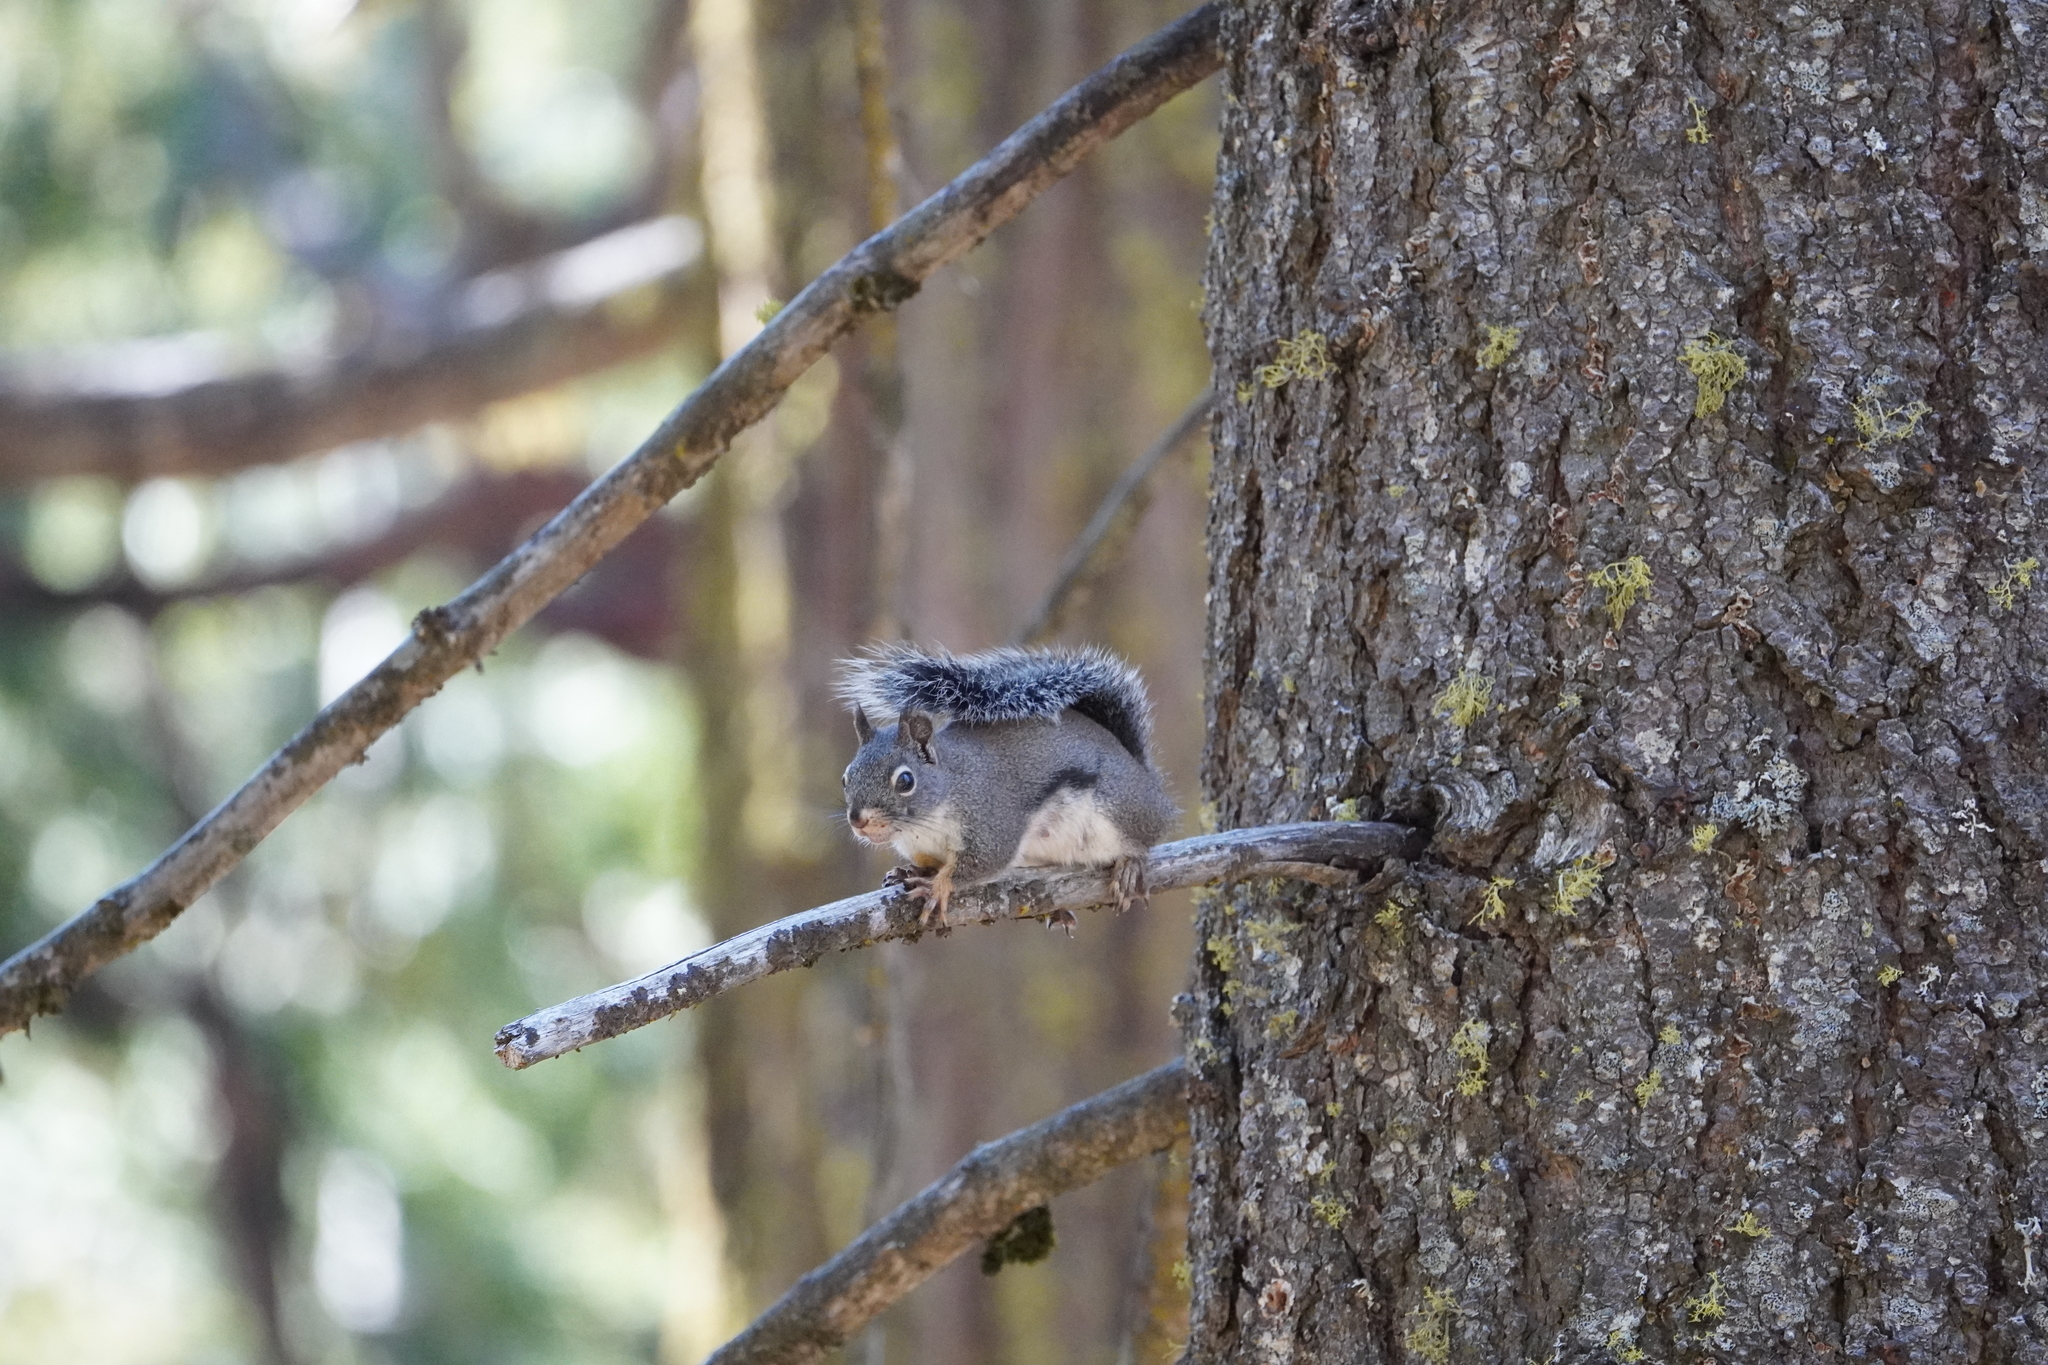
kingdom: Animalia
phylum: Chordata
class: Mammalia
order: Rodentia
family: Sciuridae
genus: Tamiasciurus
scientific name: Tamiasciurus douglasii
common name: Douglas's squirrel
